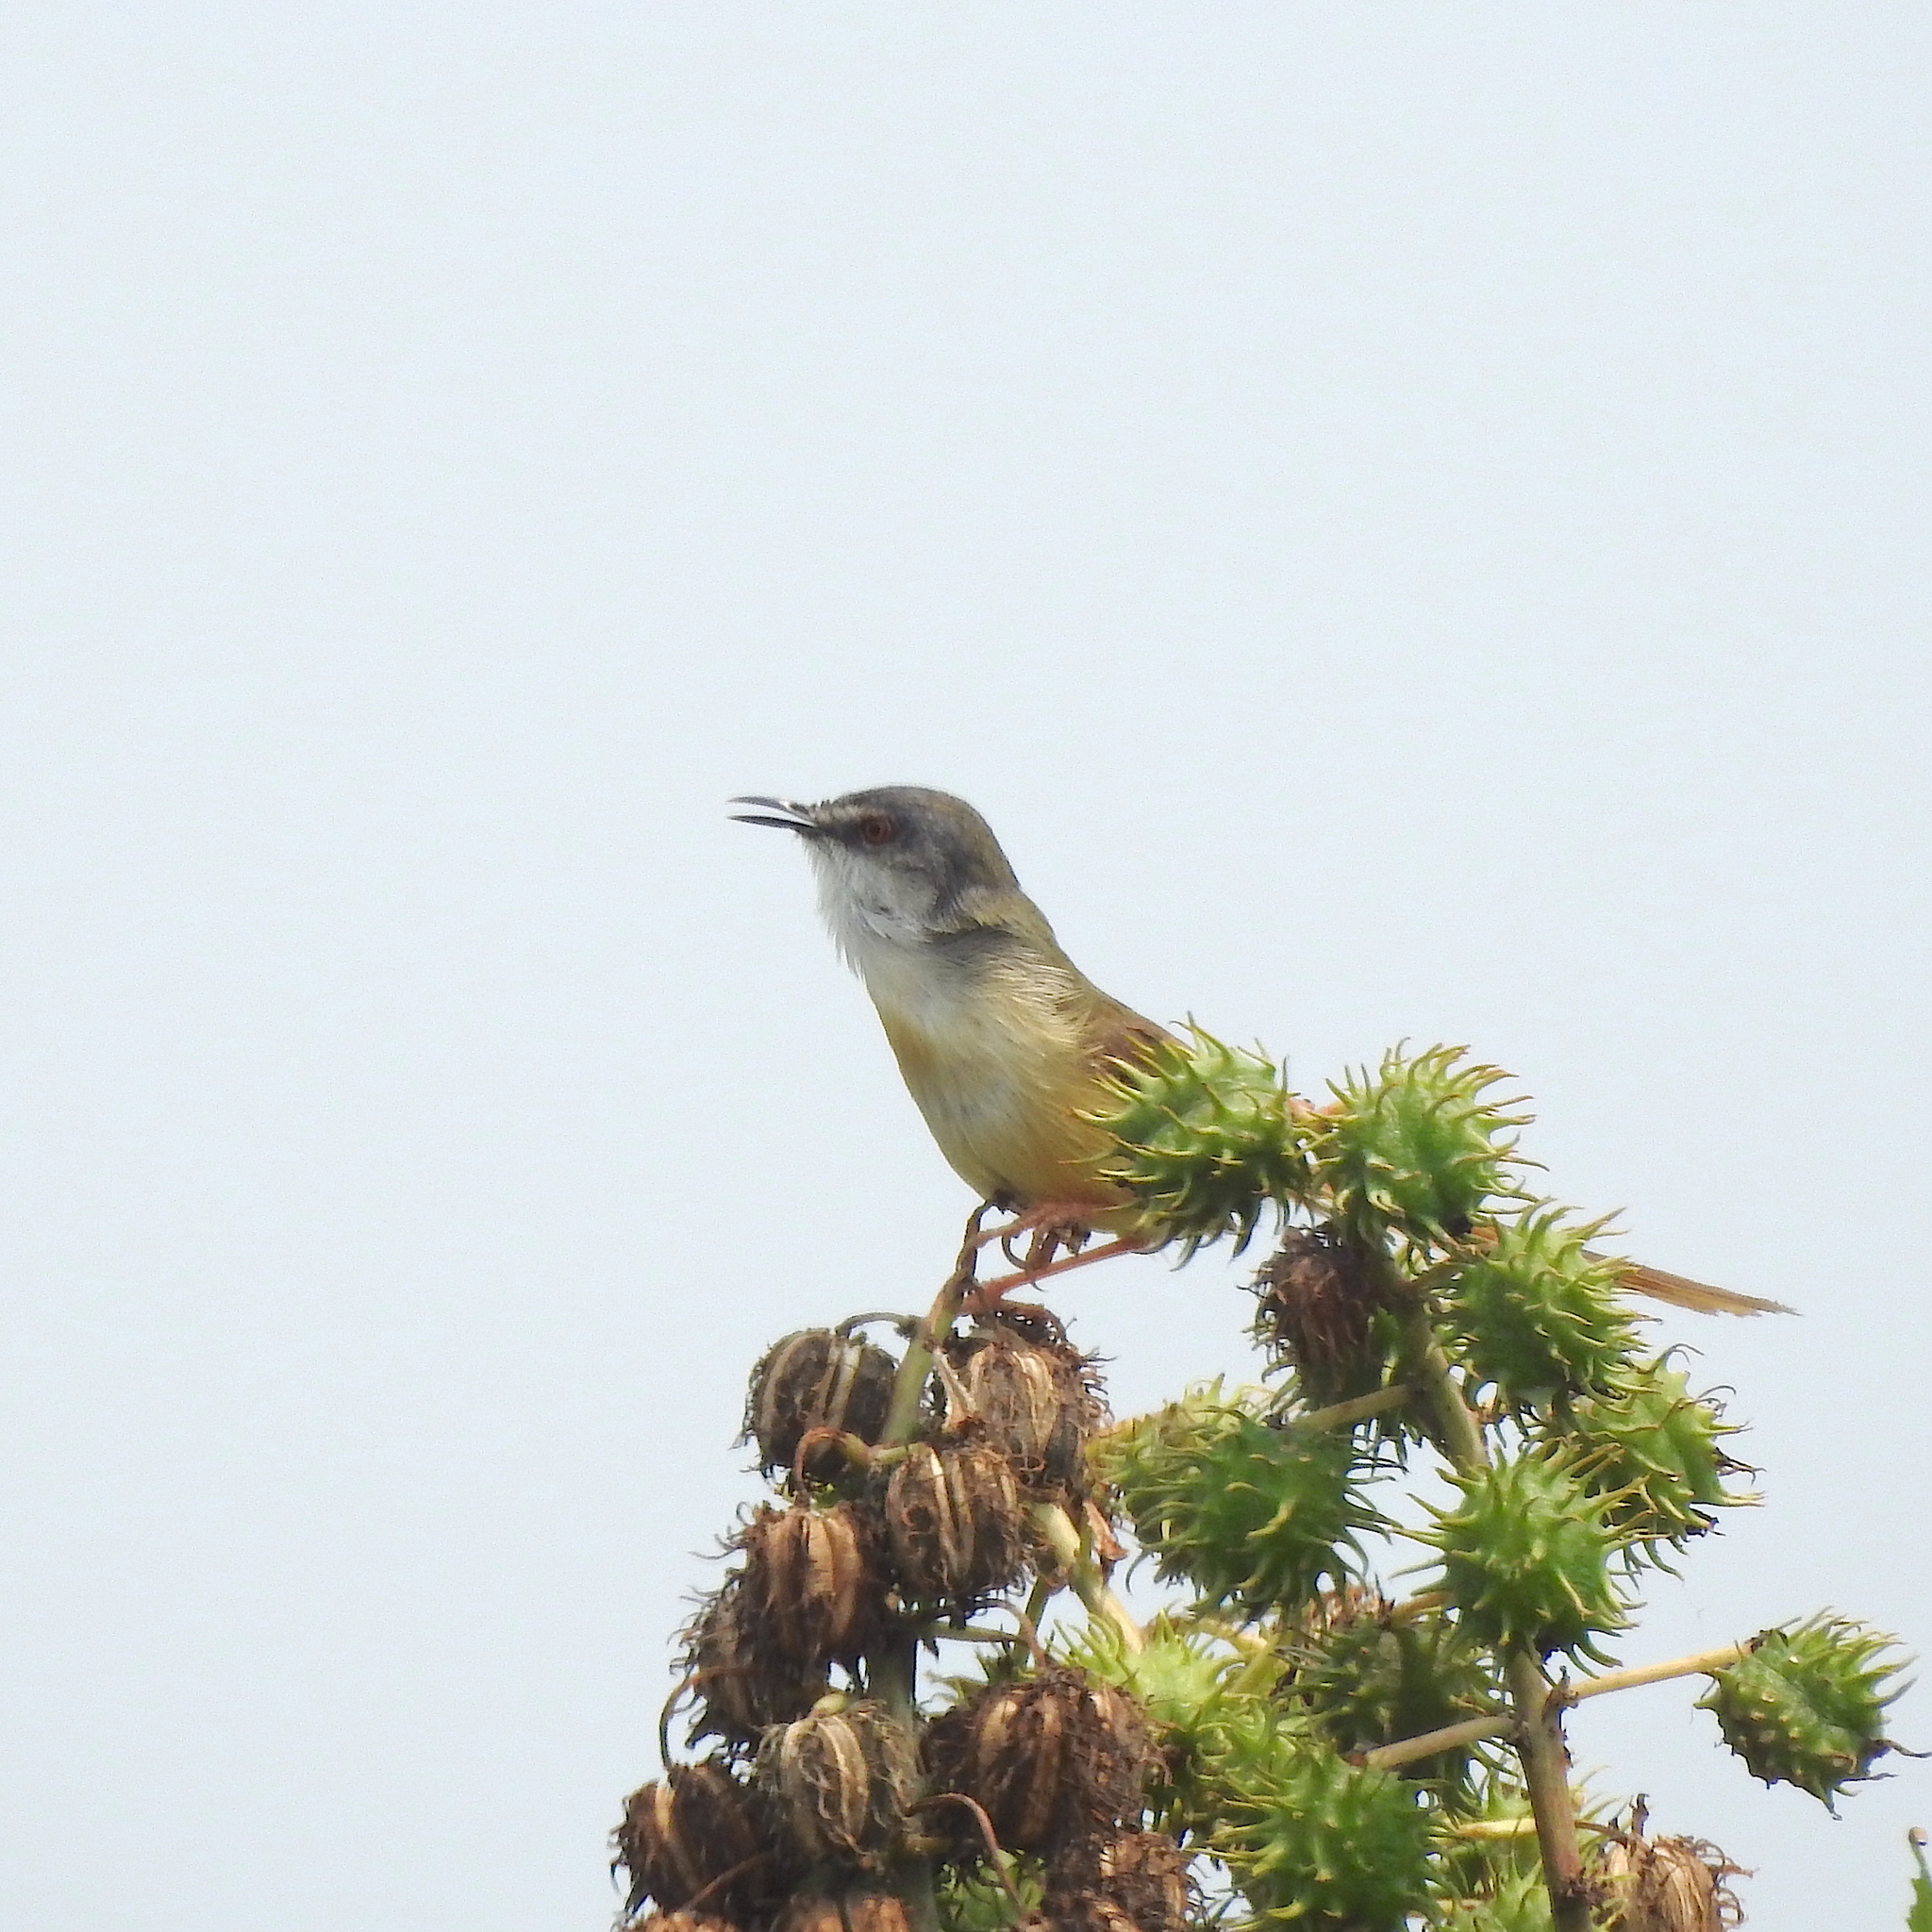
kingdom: Animalia
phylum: Chordata
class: Aves
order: Passeriformes
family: Cisticolidae
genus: Prinia
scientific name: Prinia flaviventris
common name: Yellow-bellied prinia
